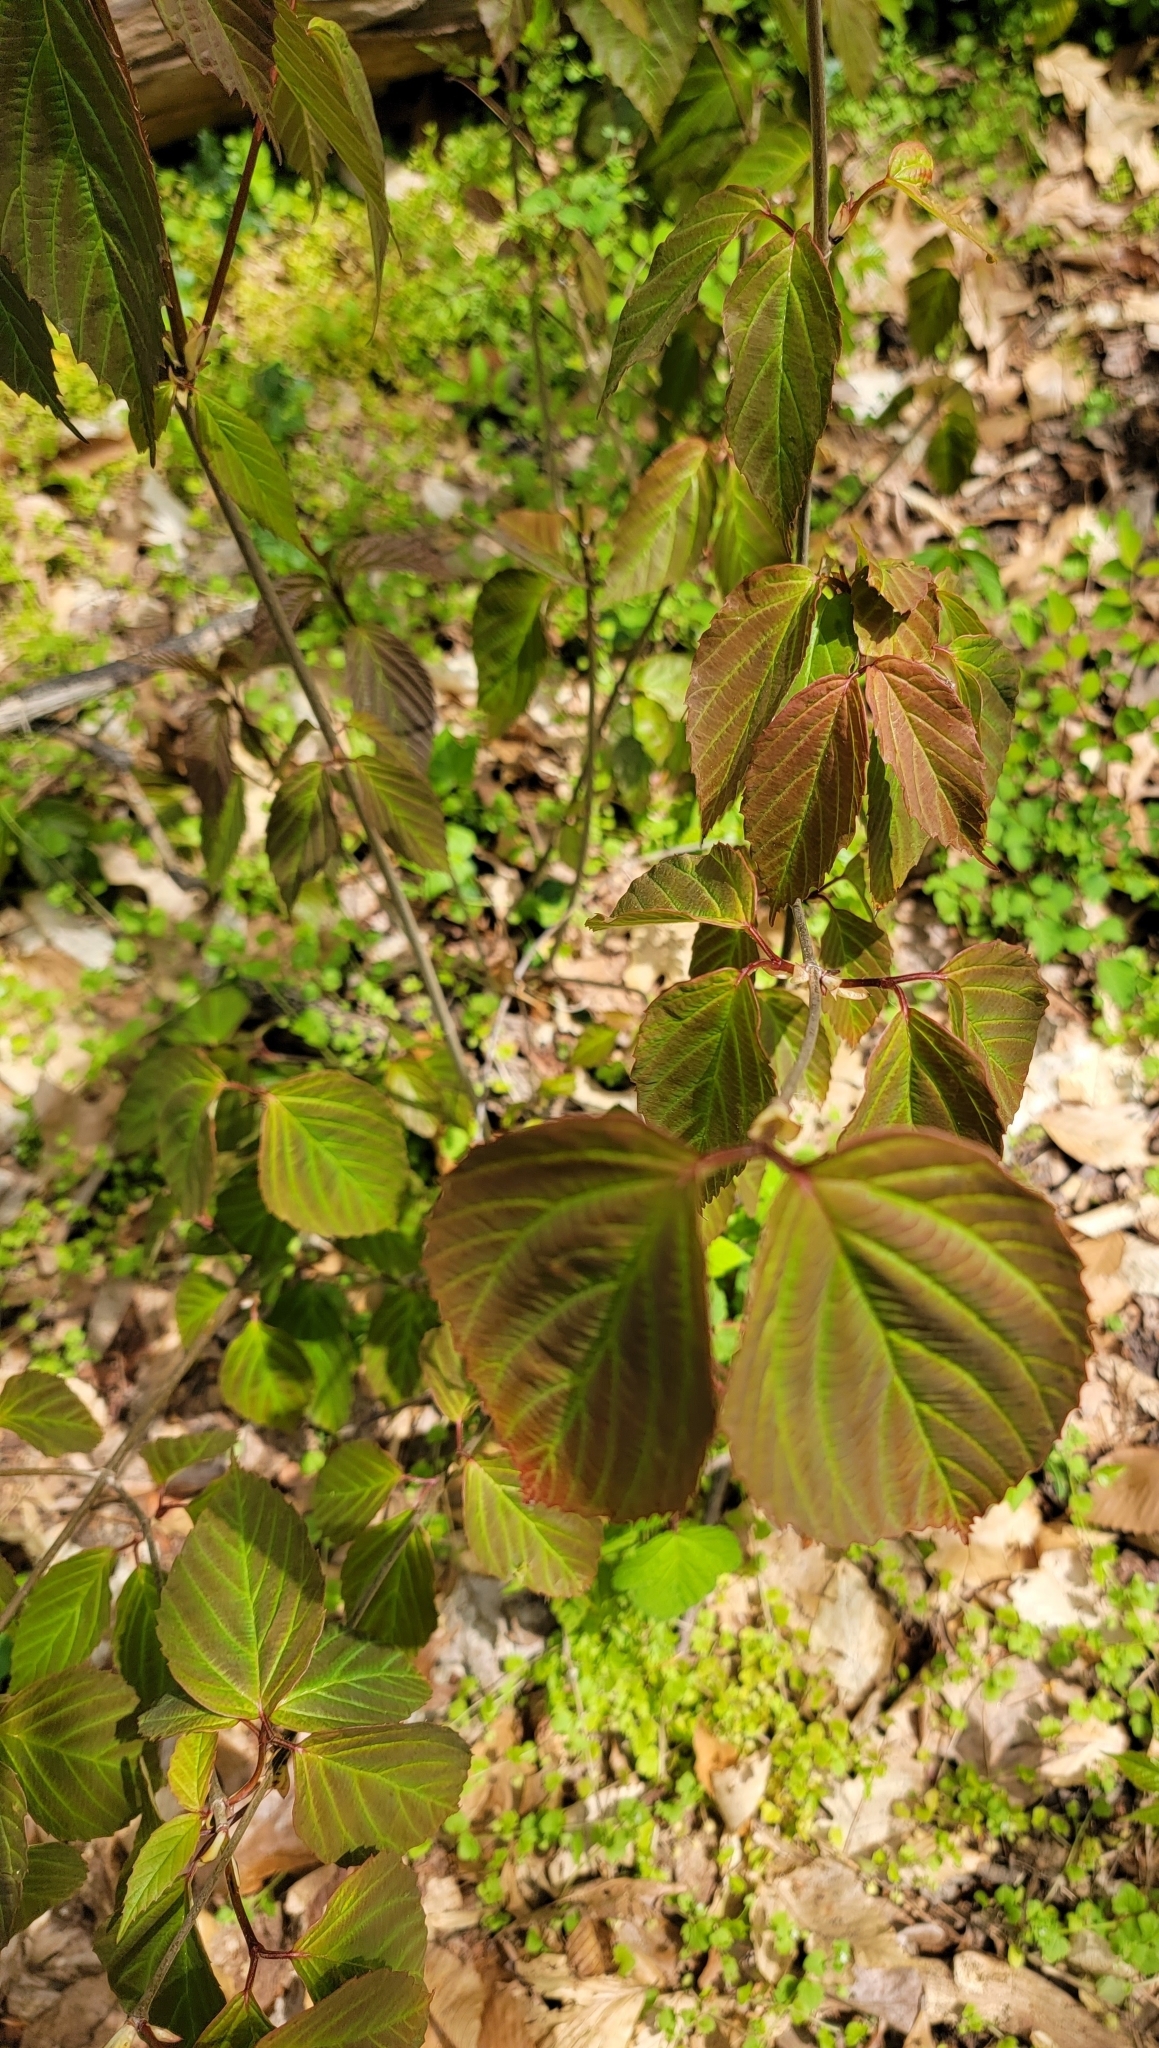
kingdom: Plantae
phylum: Tracheophyta
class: Magnoliopsida
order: Dipsacales
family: Viburnaceae
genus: Viburnum
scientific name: Viburnum setigerum
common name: Tea viburnum
